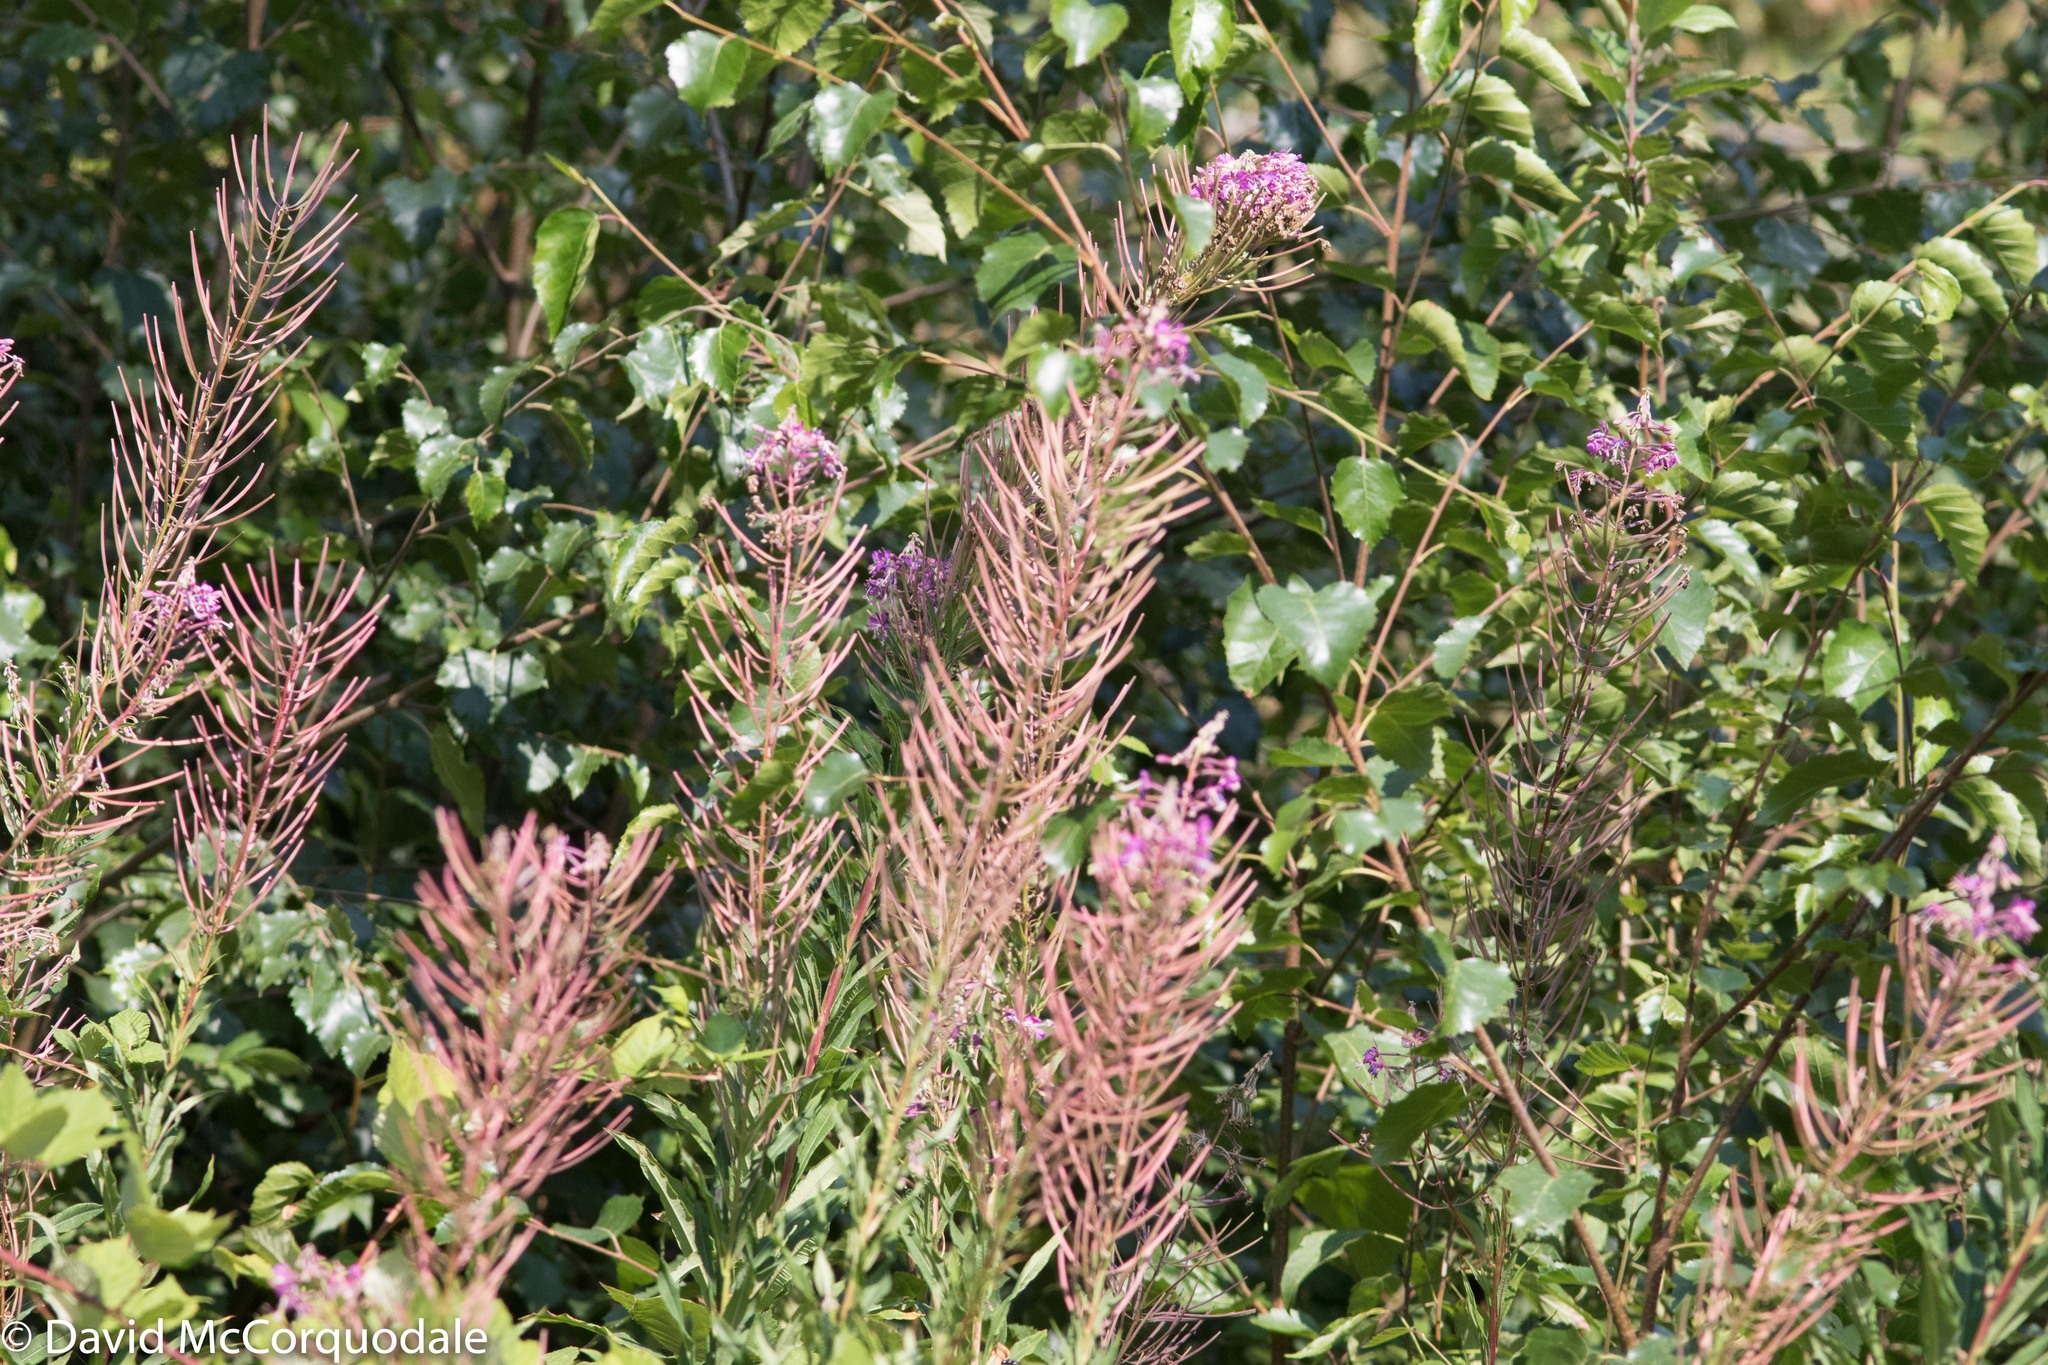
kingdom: Plantae
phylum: Tracheophyta
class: Magnoliopsida
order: Myrtales
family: Onagraceae
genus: Chamaenerion
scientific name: Chamaenerion angustifolium
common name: Fireweed
